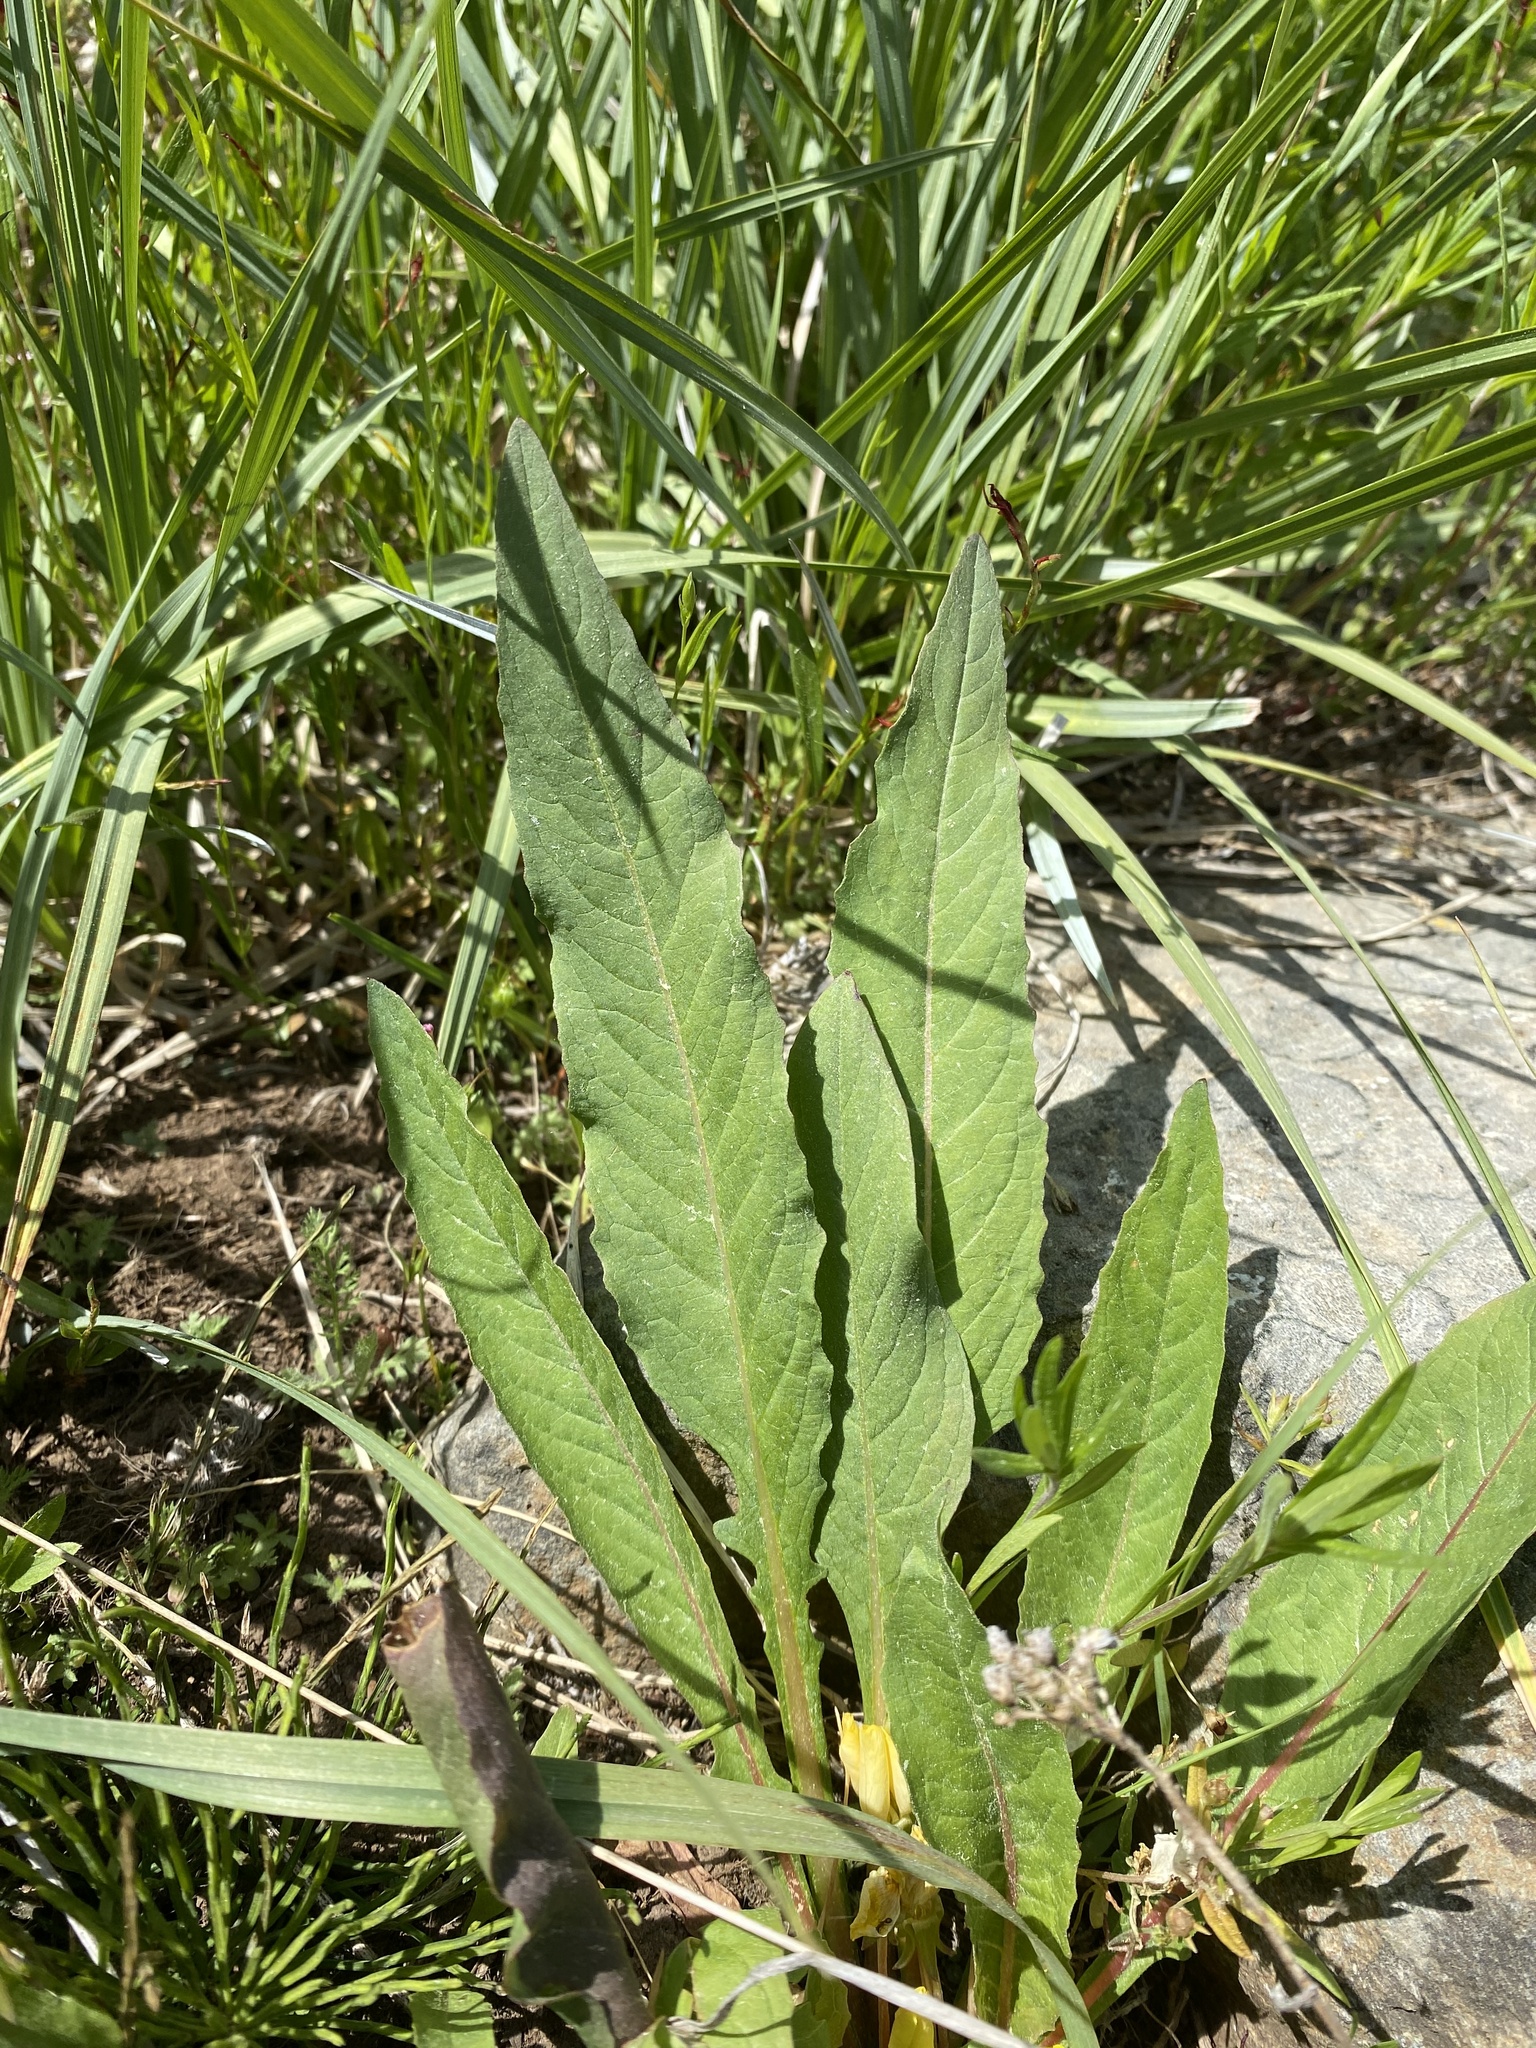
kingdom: Plantae
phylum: Tracheophyta
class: Magnoliopsida
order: Myrtales
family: Onagraceae
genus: Taraxia
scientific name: Taraxia subacaulis
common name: Diffuseflower evening primrose
